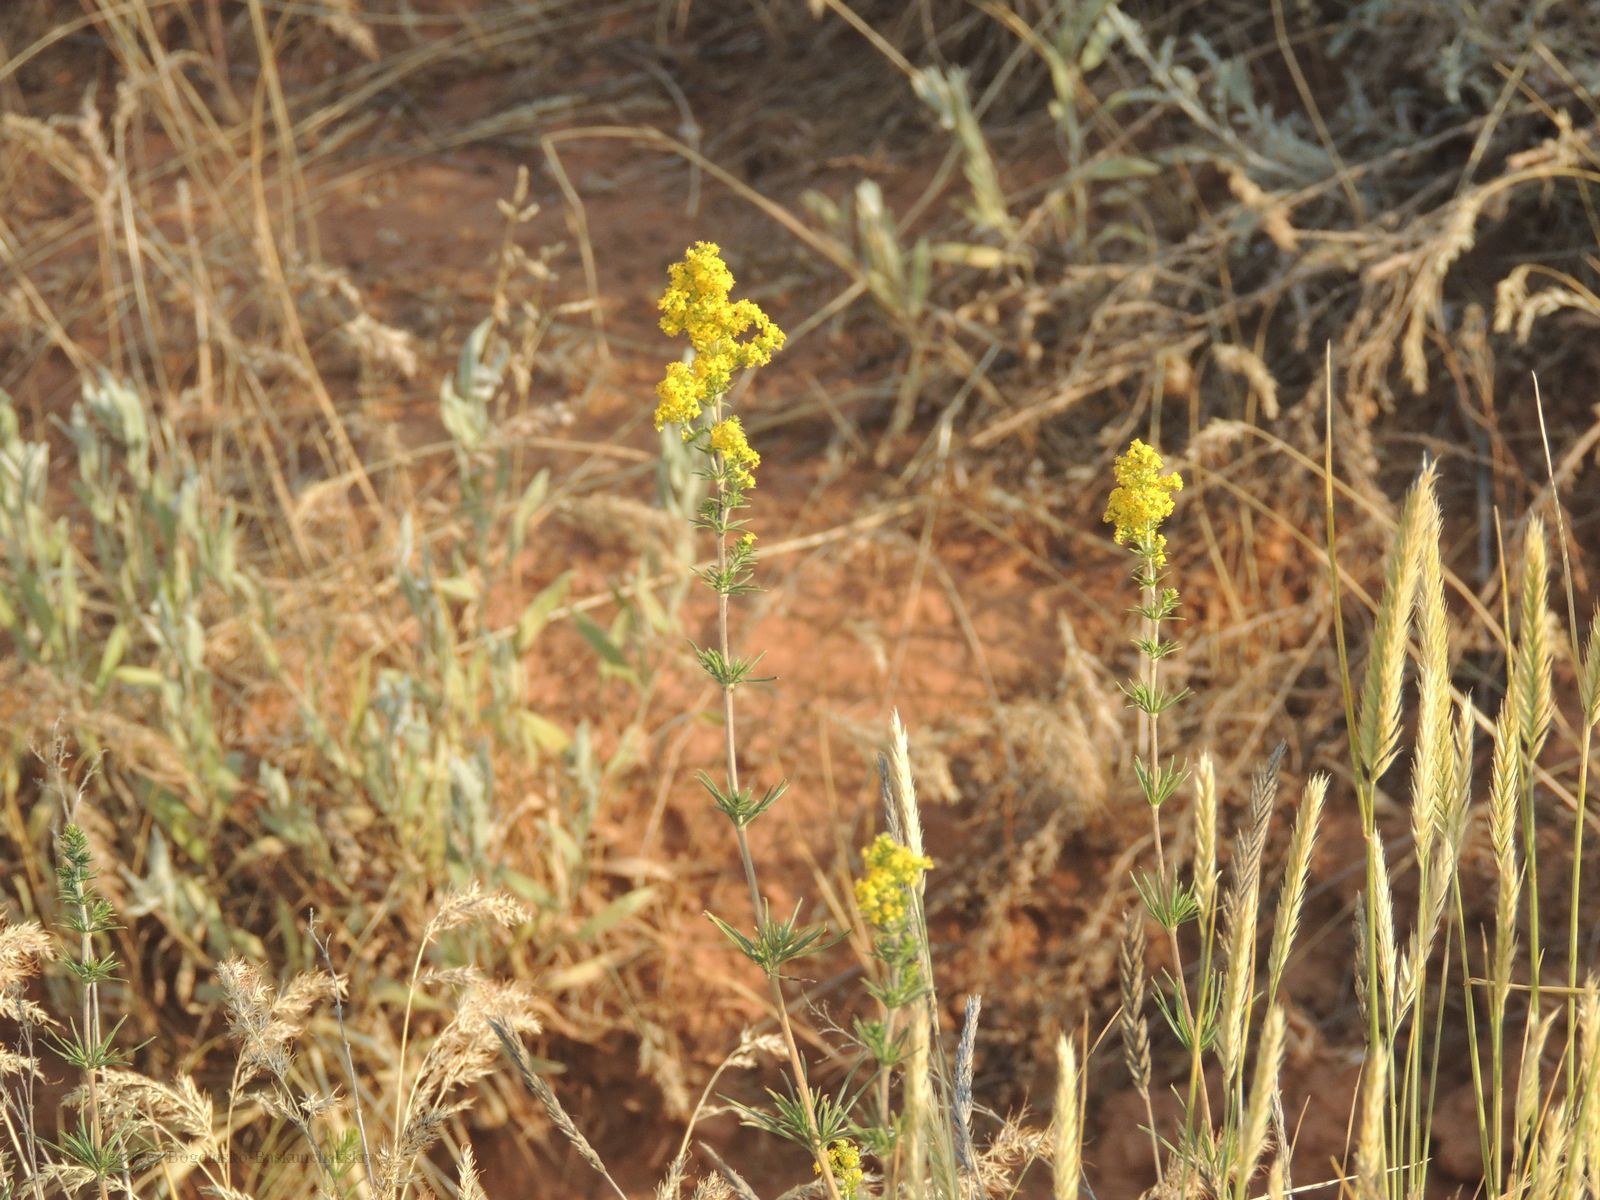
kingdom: Plantae
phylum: Tracheophyta
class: Magnoliopsida
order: Gentianales
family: Rubiaceae
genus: Galium
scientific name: Galium verum
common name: Lady's bedstraw
